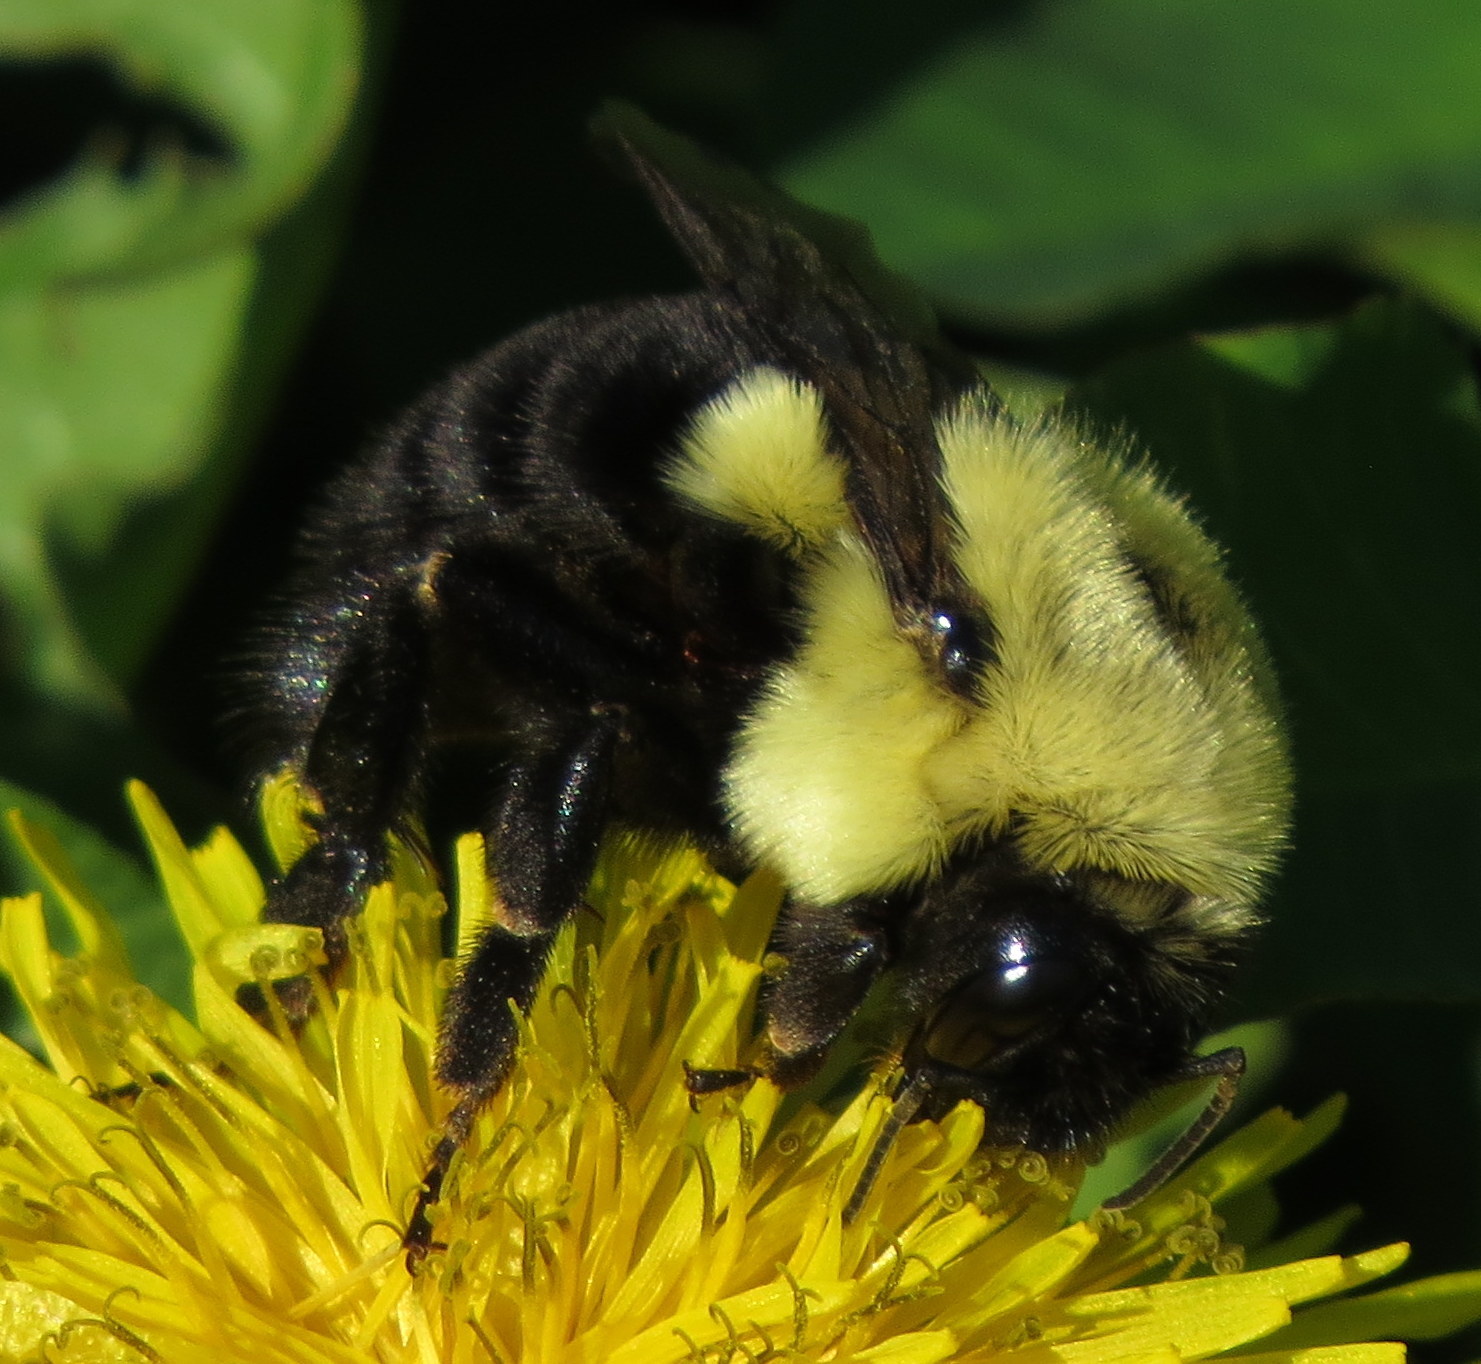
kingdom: Animalia
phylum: Arthropoda
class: Insecta
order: Hymenoptera
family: Apidae
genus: Bombus
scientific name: Bombus impatiens
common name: Common eastern bumble bee
